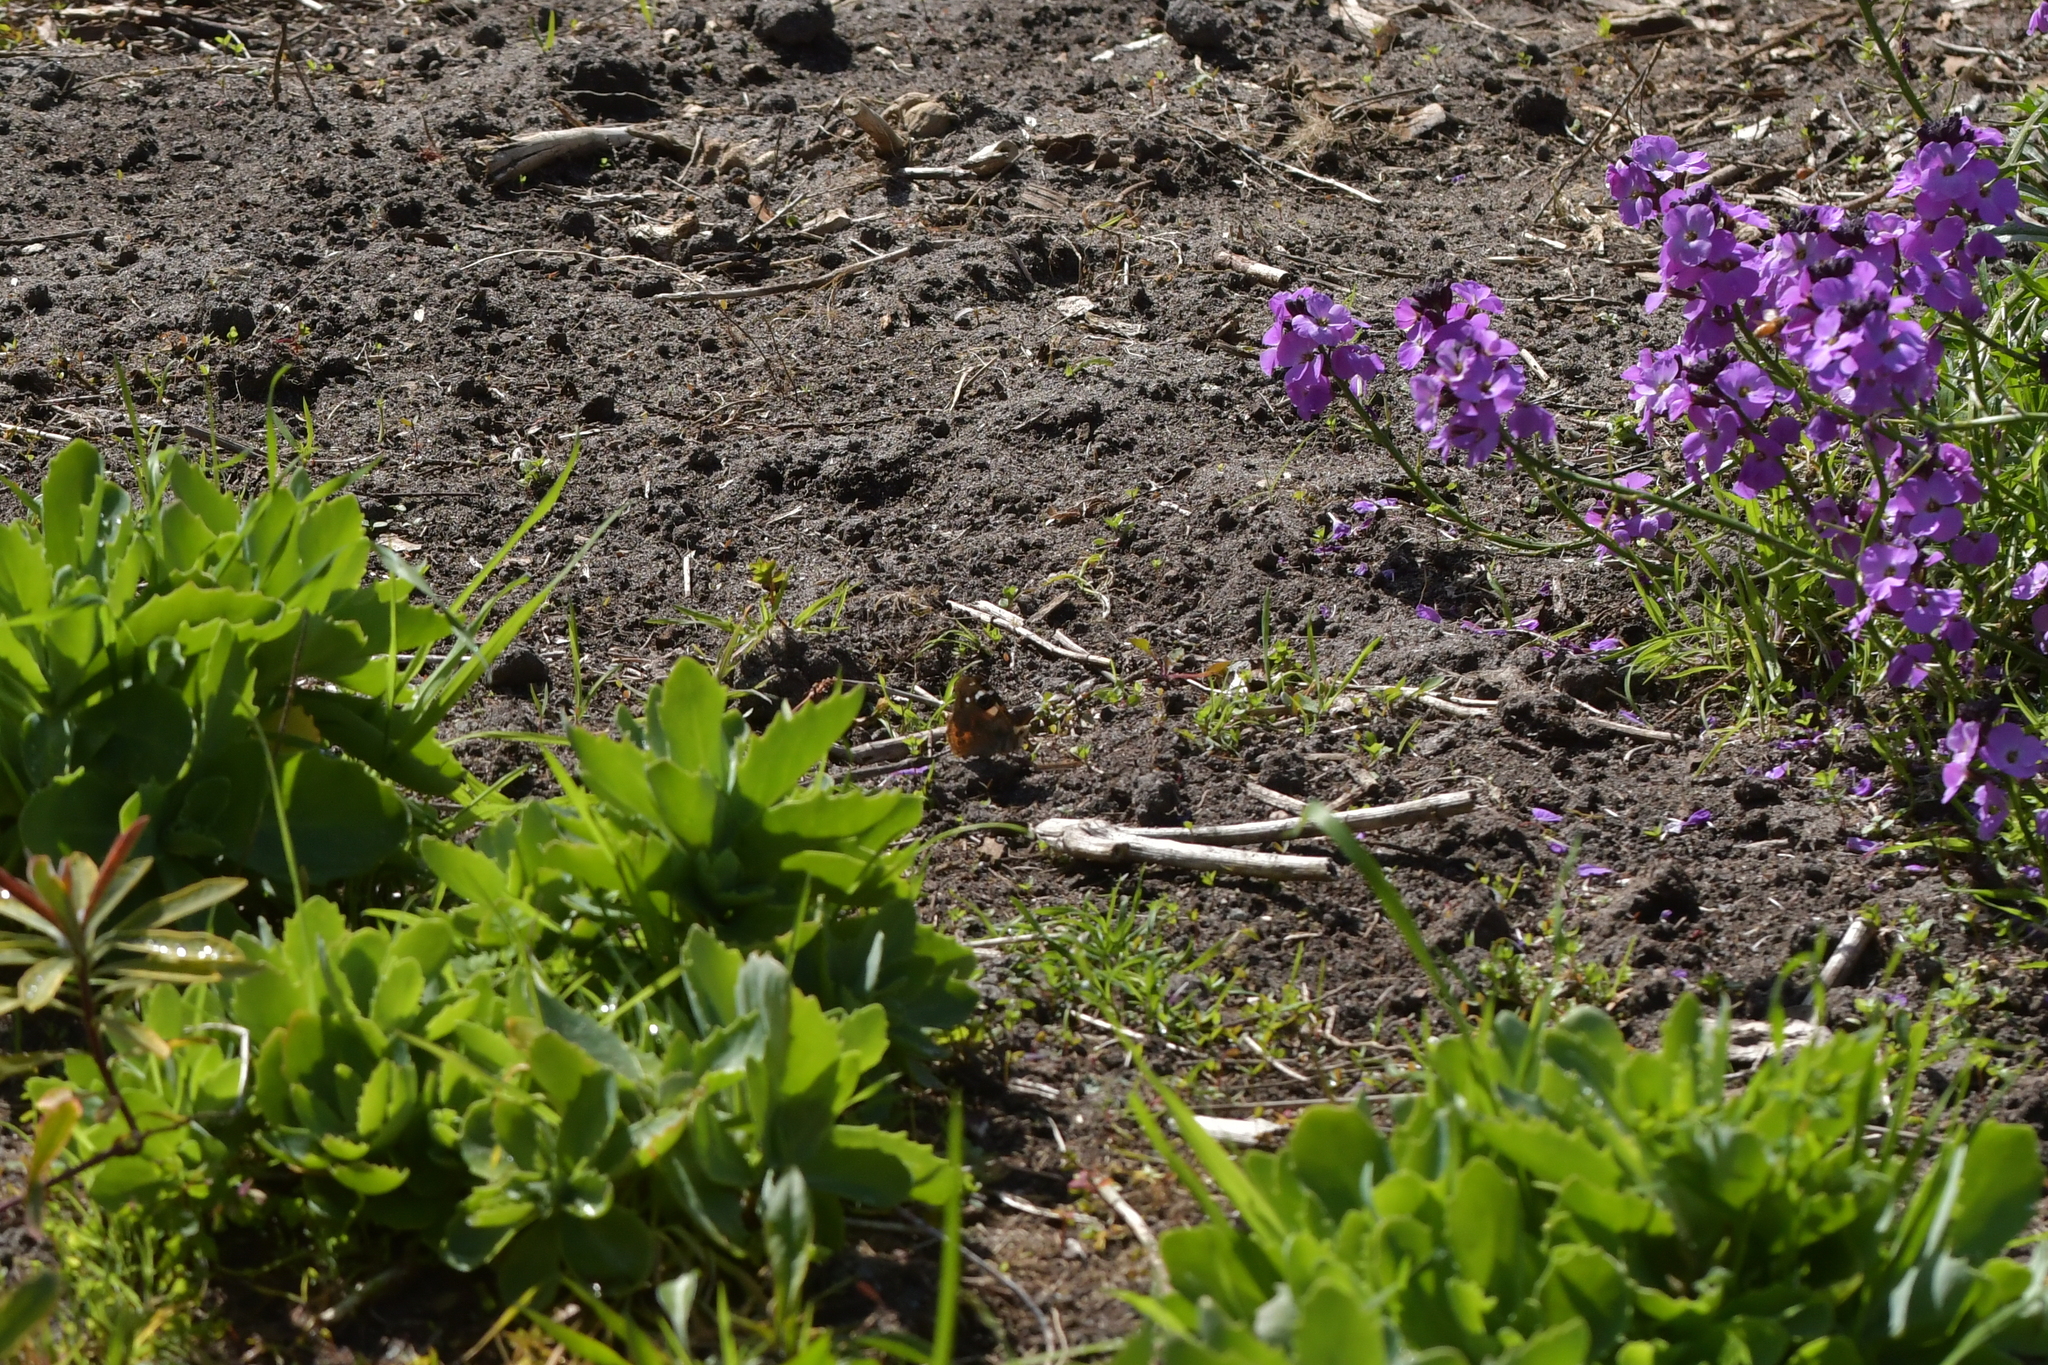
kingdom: Animalia
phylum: Arthropoda
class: Insecta
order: Lepidoptera
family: Nymphalidae
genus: Vanessa
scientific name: Vanessa gonerilla
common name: New zealand red admiral
